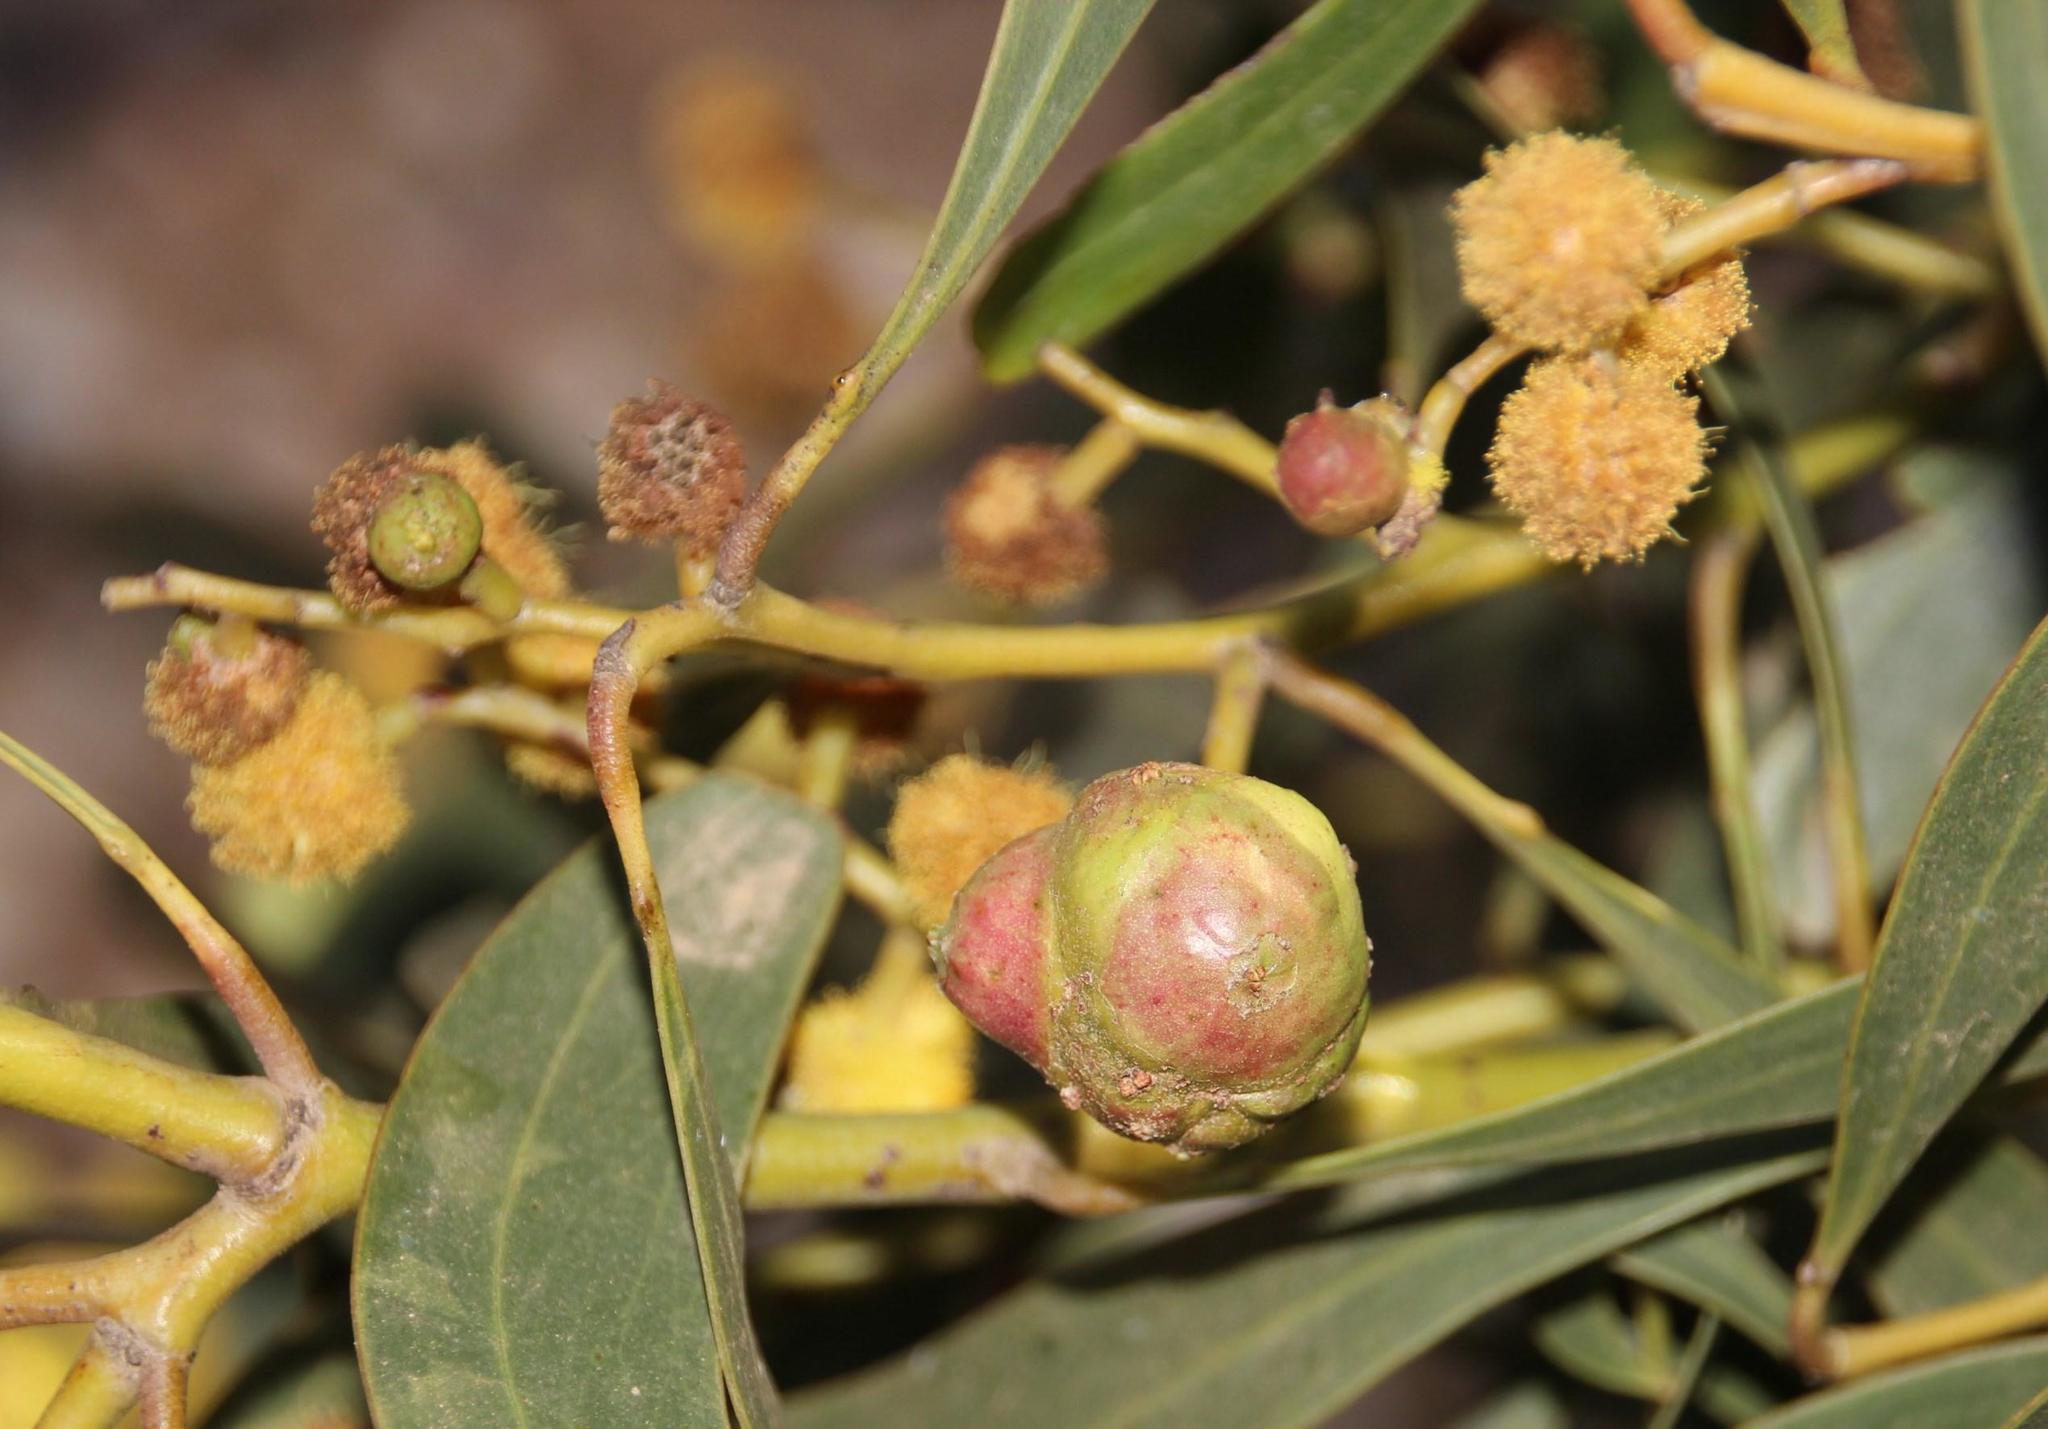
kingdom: Animalia
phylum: Arthropoda
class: Insecta
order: Hymenoptera
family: Pteromalidae
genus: Trichilogaster
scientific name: Trichilogaster signiventris
